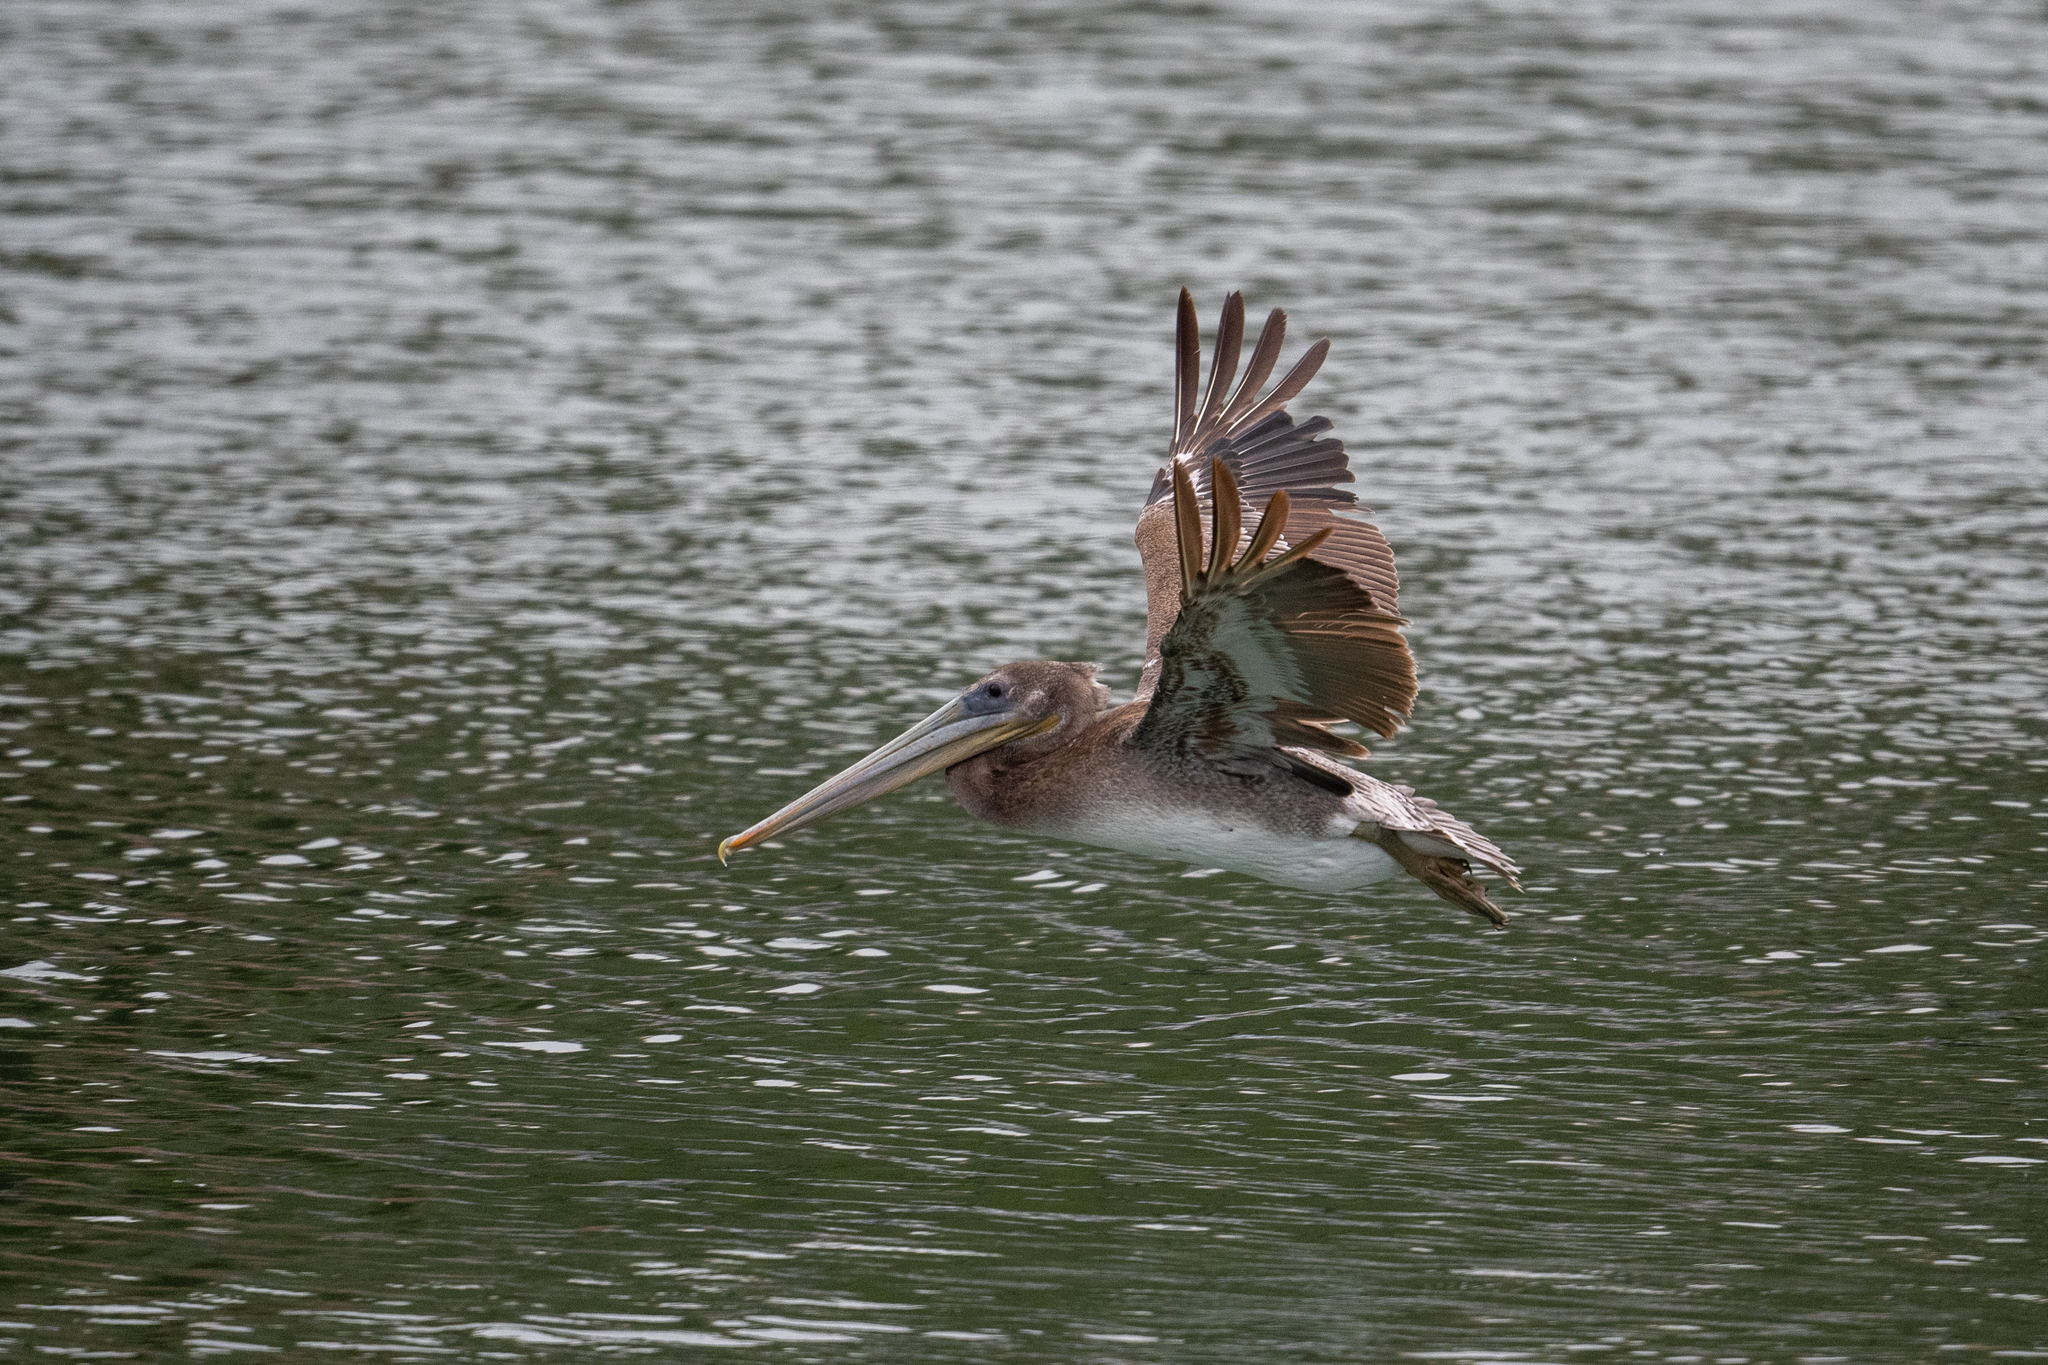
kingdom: Animalia
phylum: Chordata
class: Aves
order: Pelecaniformes
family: Pelecanidae
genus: Pelecanus
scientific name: Pelecanus occidentalis
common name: Brown pelican
